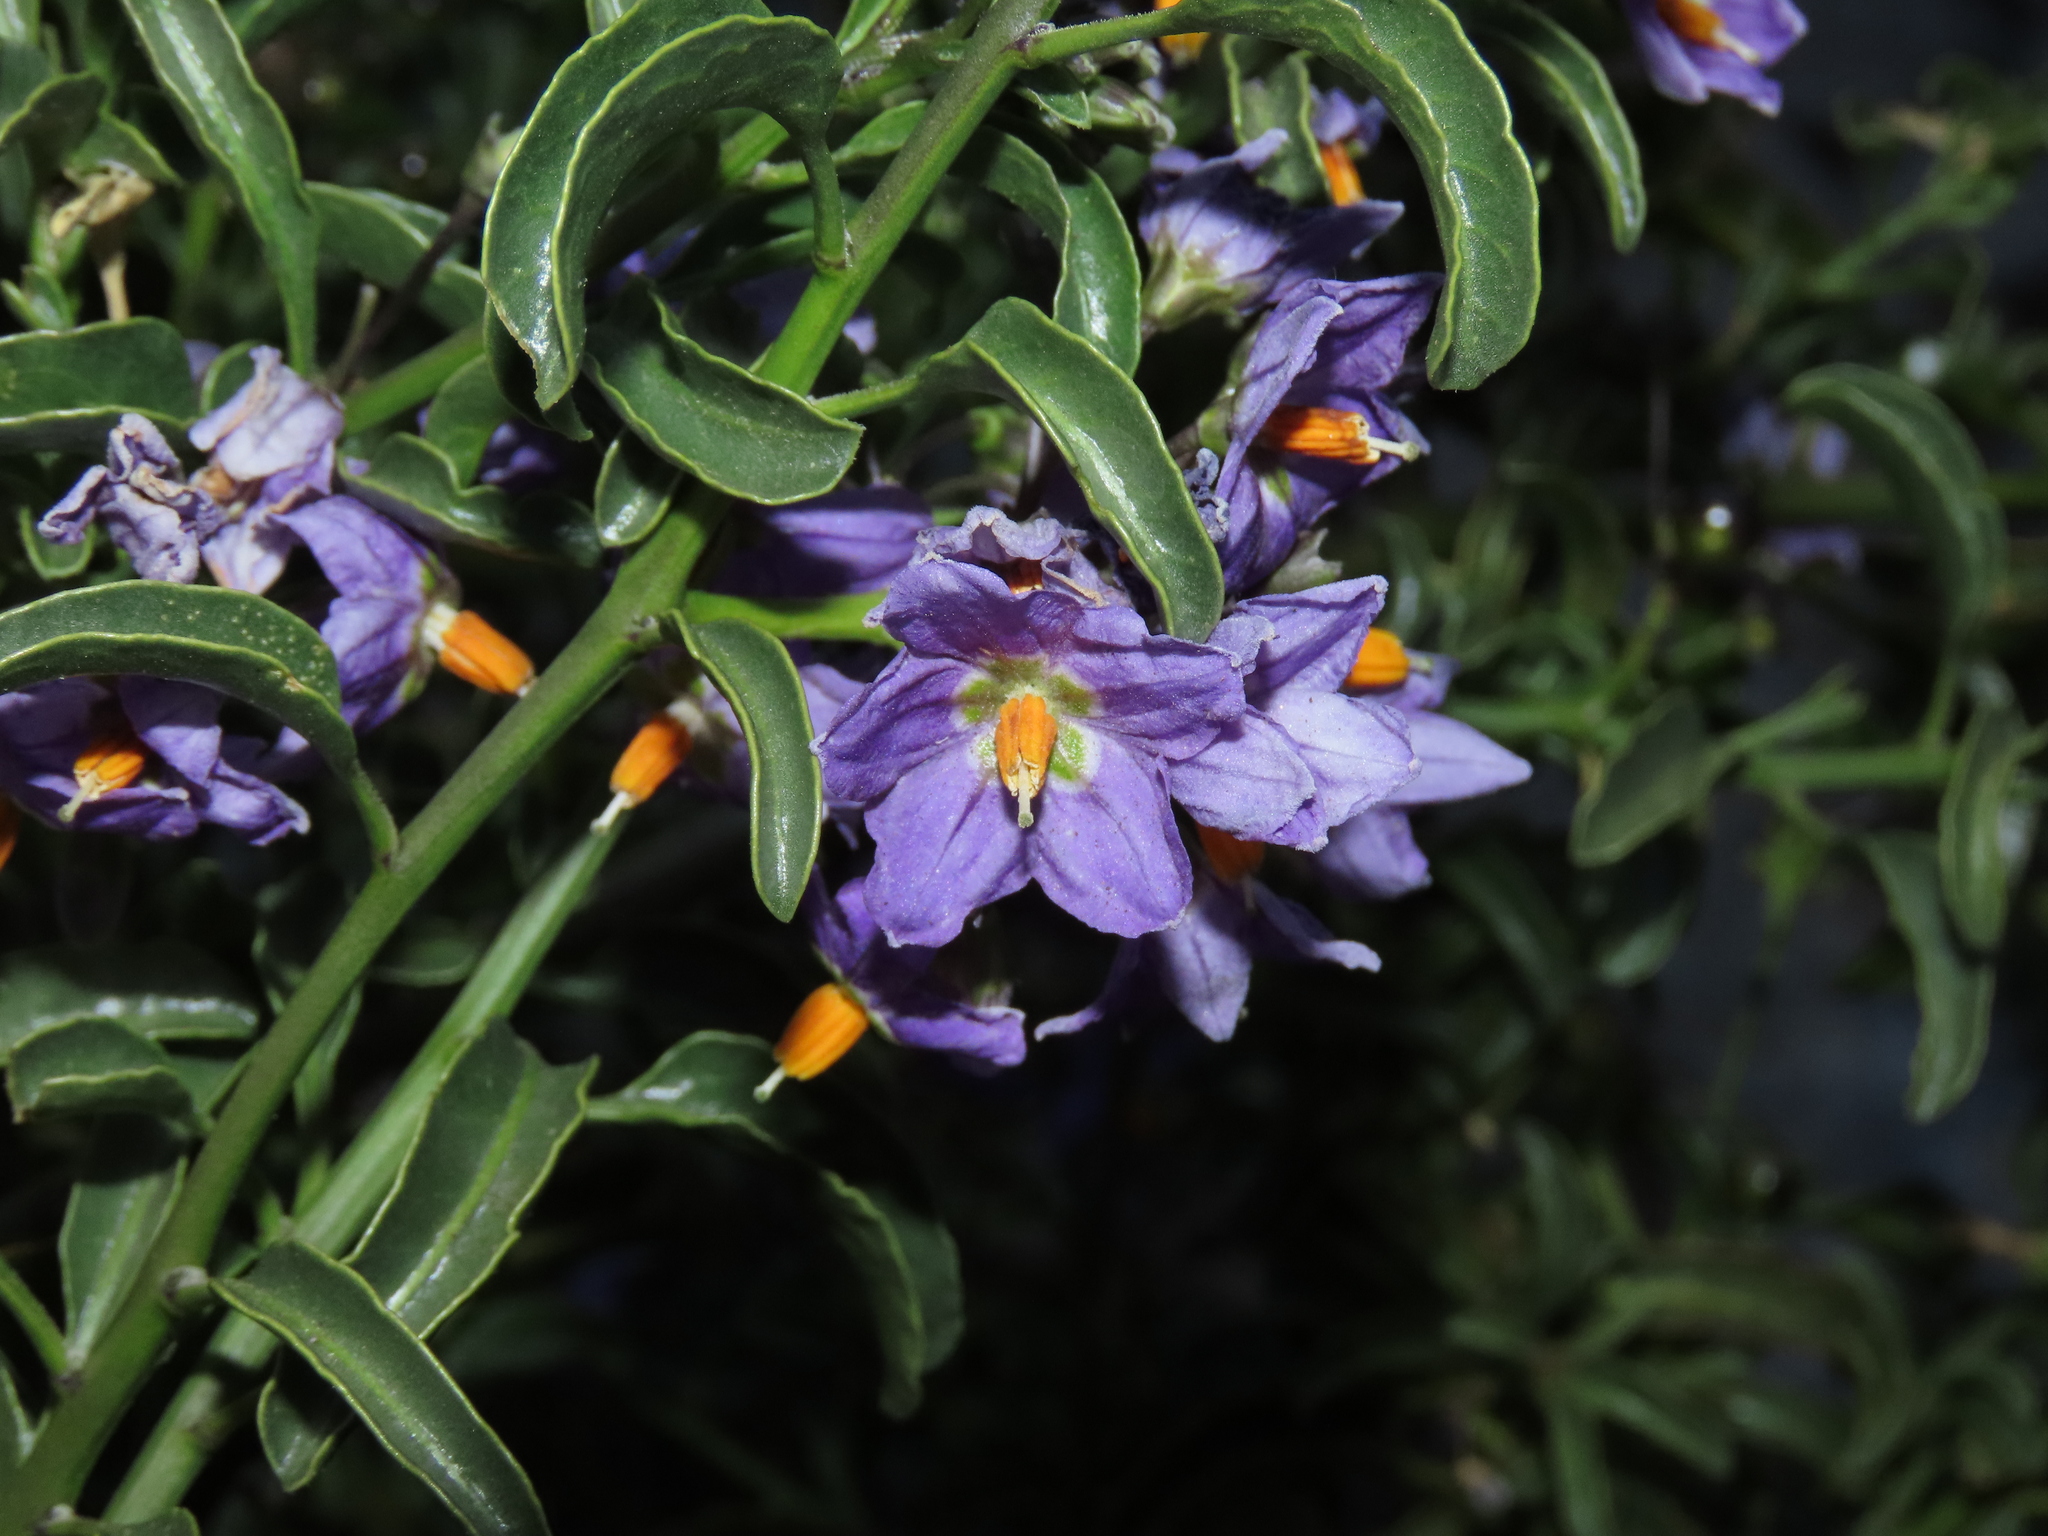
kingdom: Plantae
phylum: Tracheophyta
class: Magnoliopsida
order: Solanales
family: Solanaceae
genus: Solanum
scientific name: Solanum crispum
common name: Chilean nightshade
